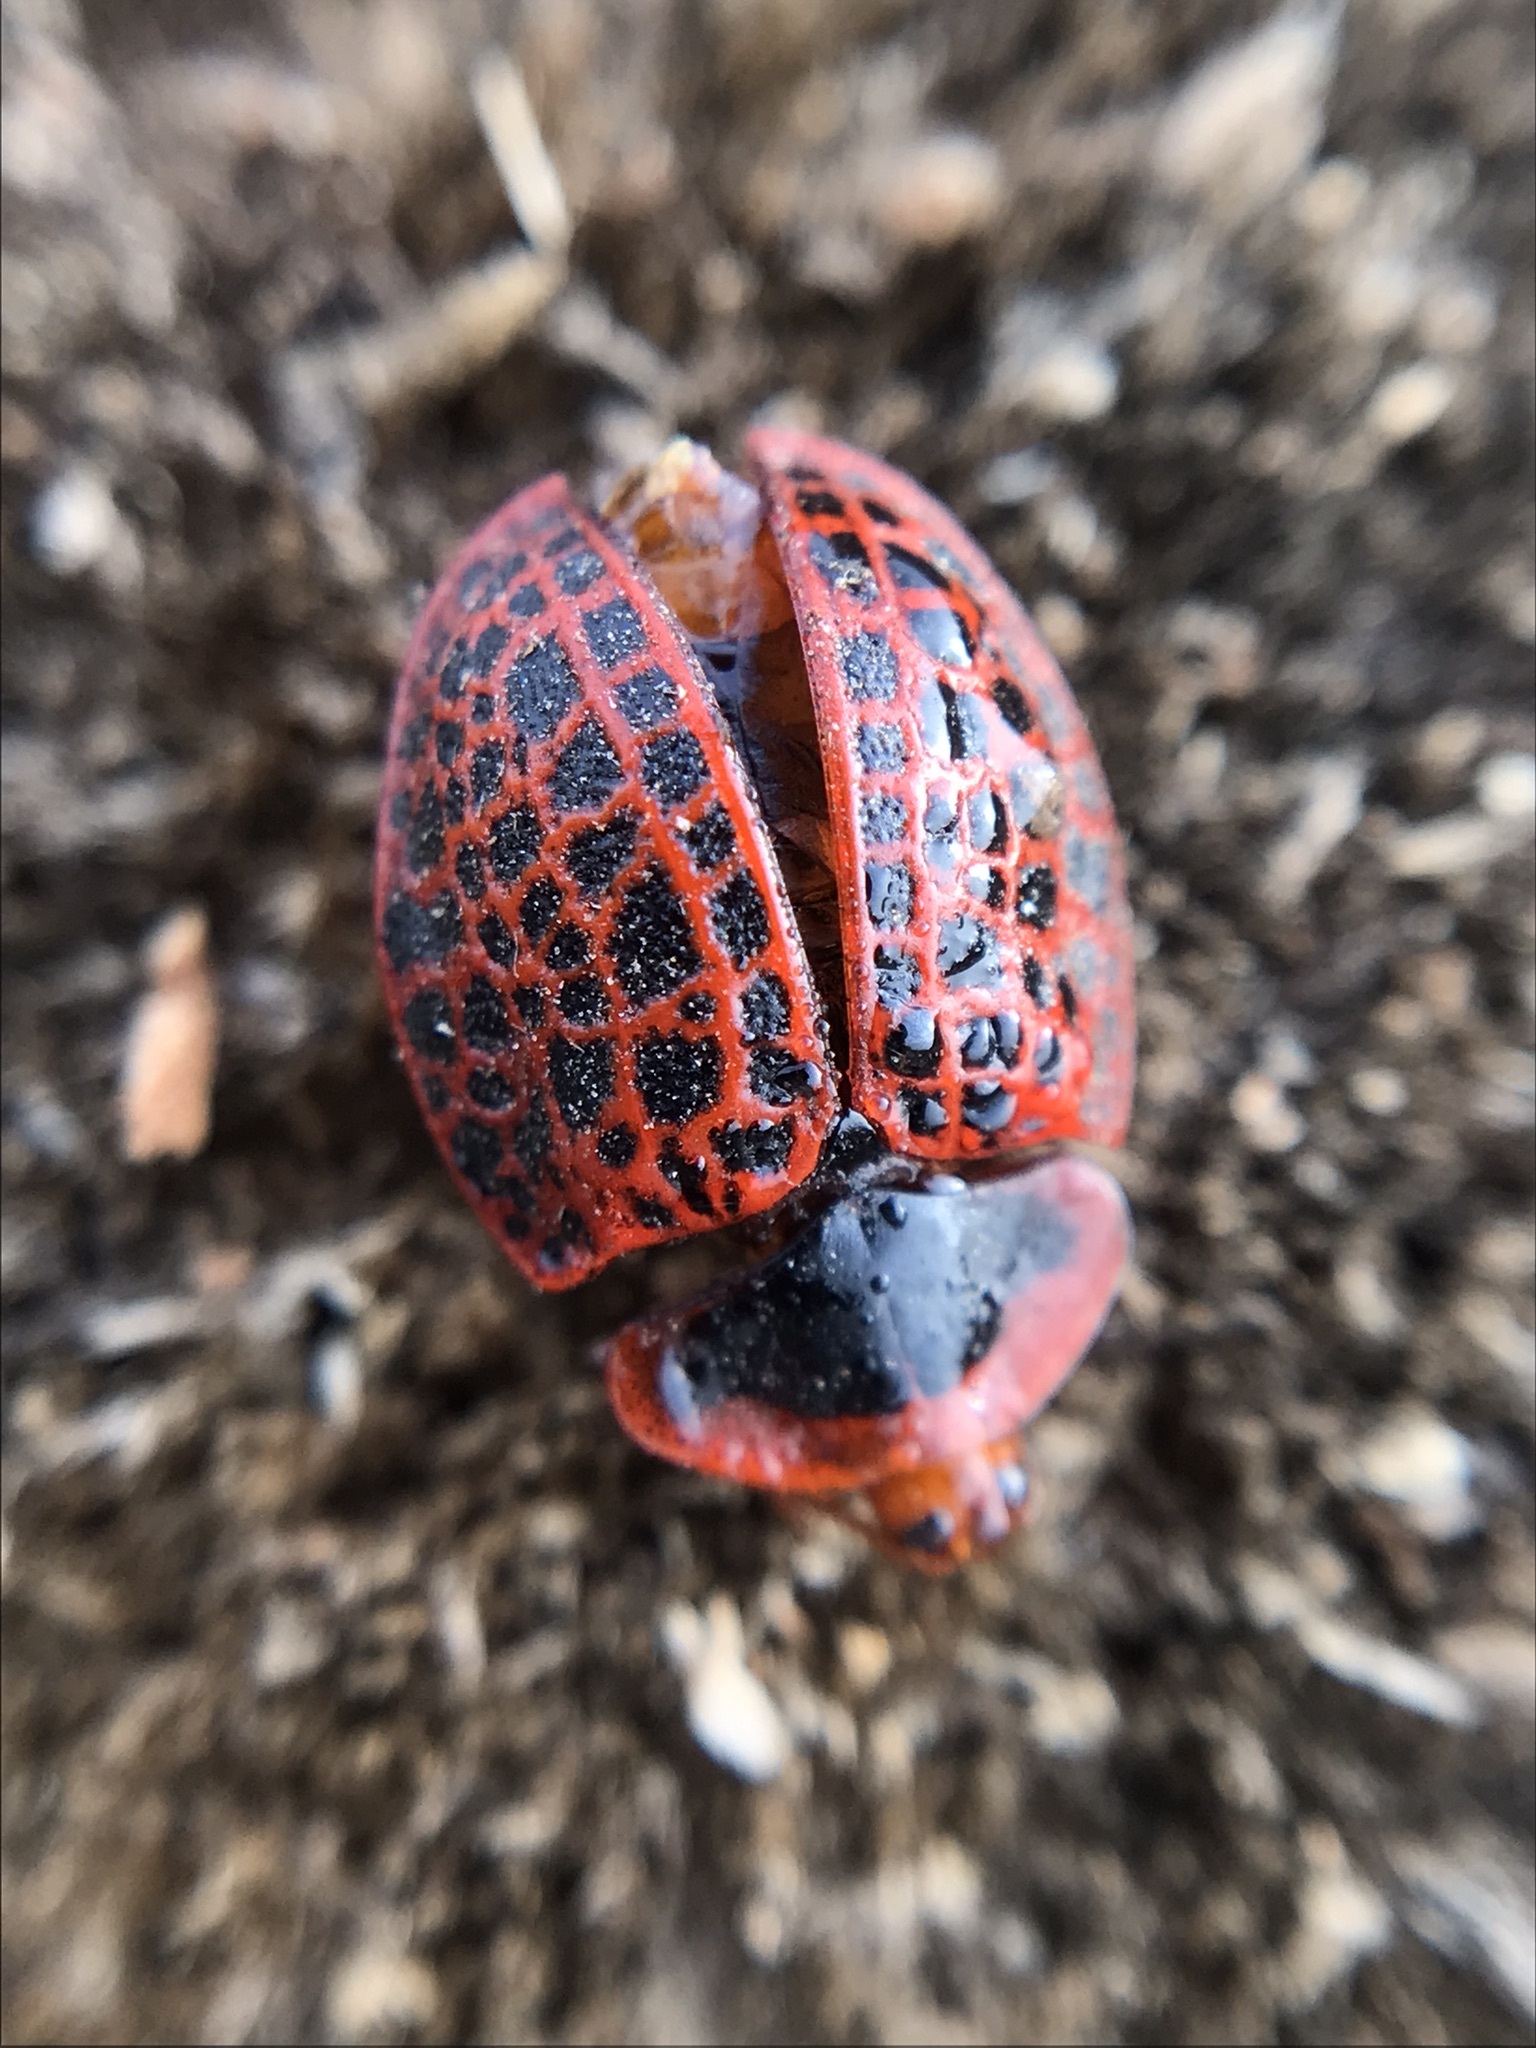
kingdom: Animalia
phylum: Arthropoda
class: Insecta
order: Coleoptera
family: Chrysomelidae
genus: Botanochara
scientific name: Botanochara macularia
